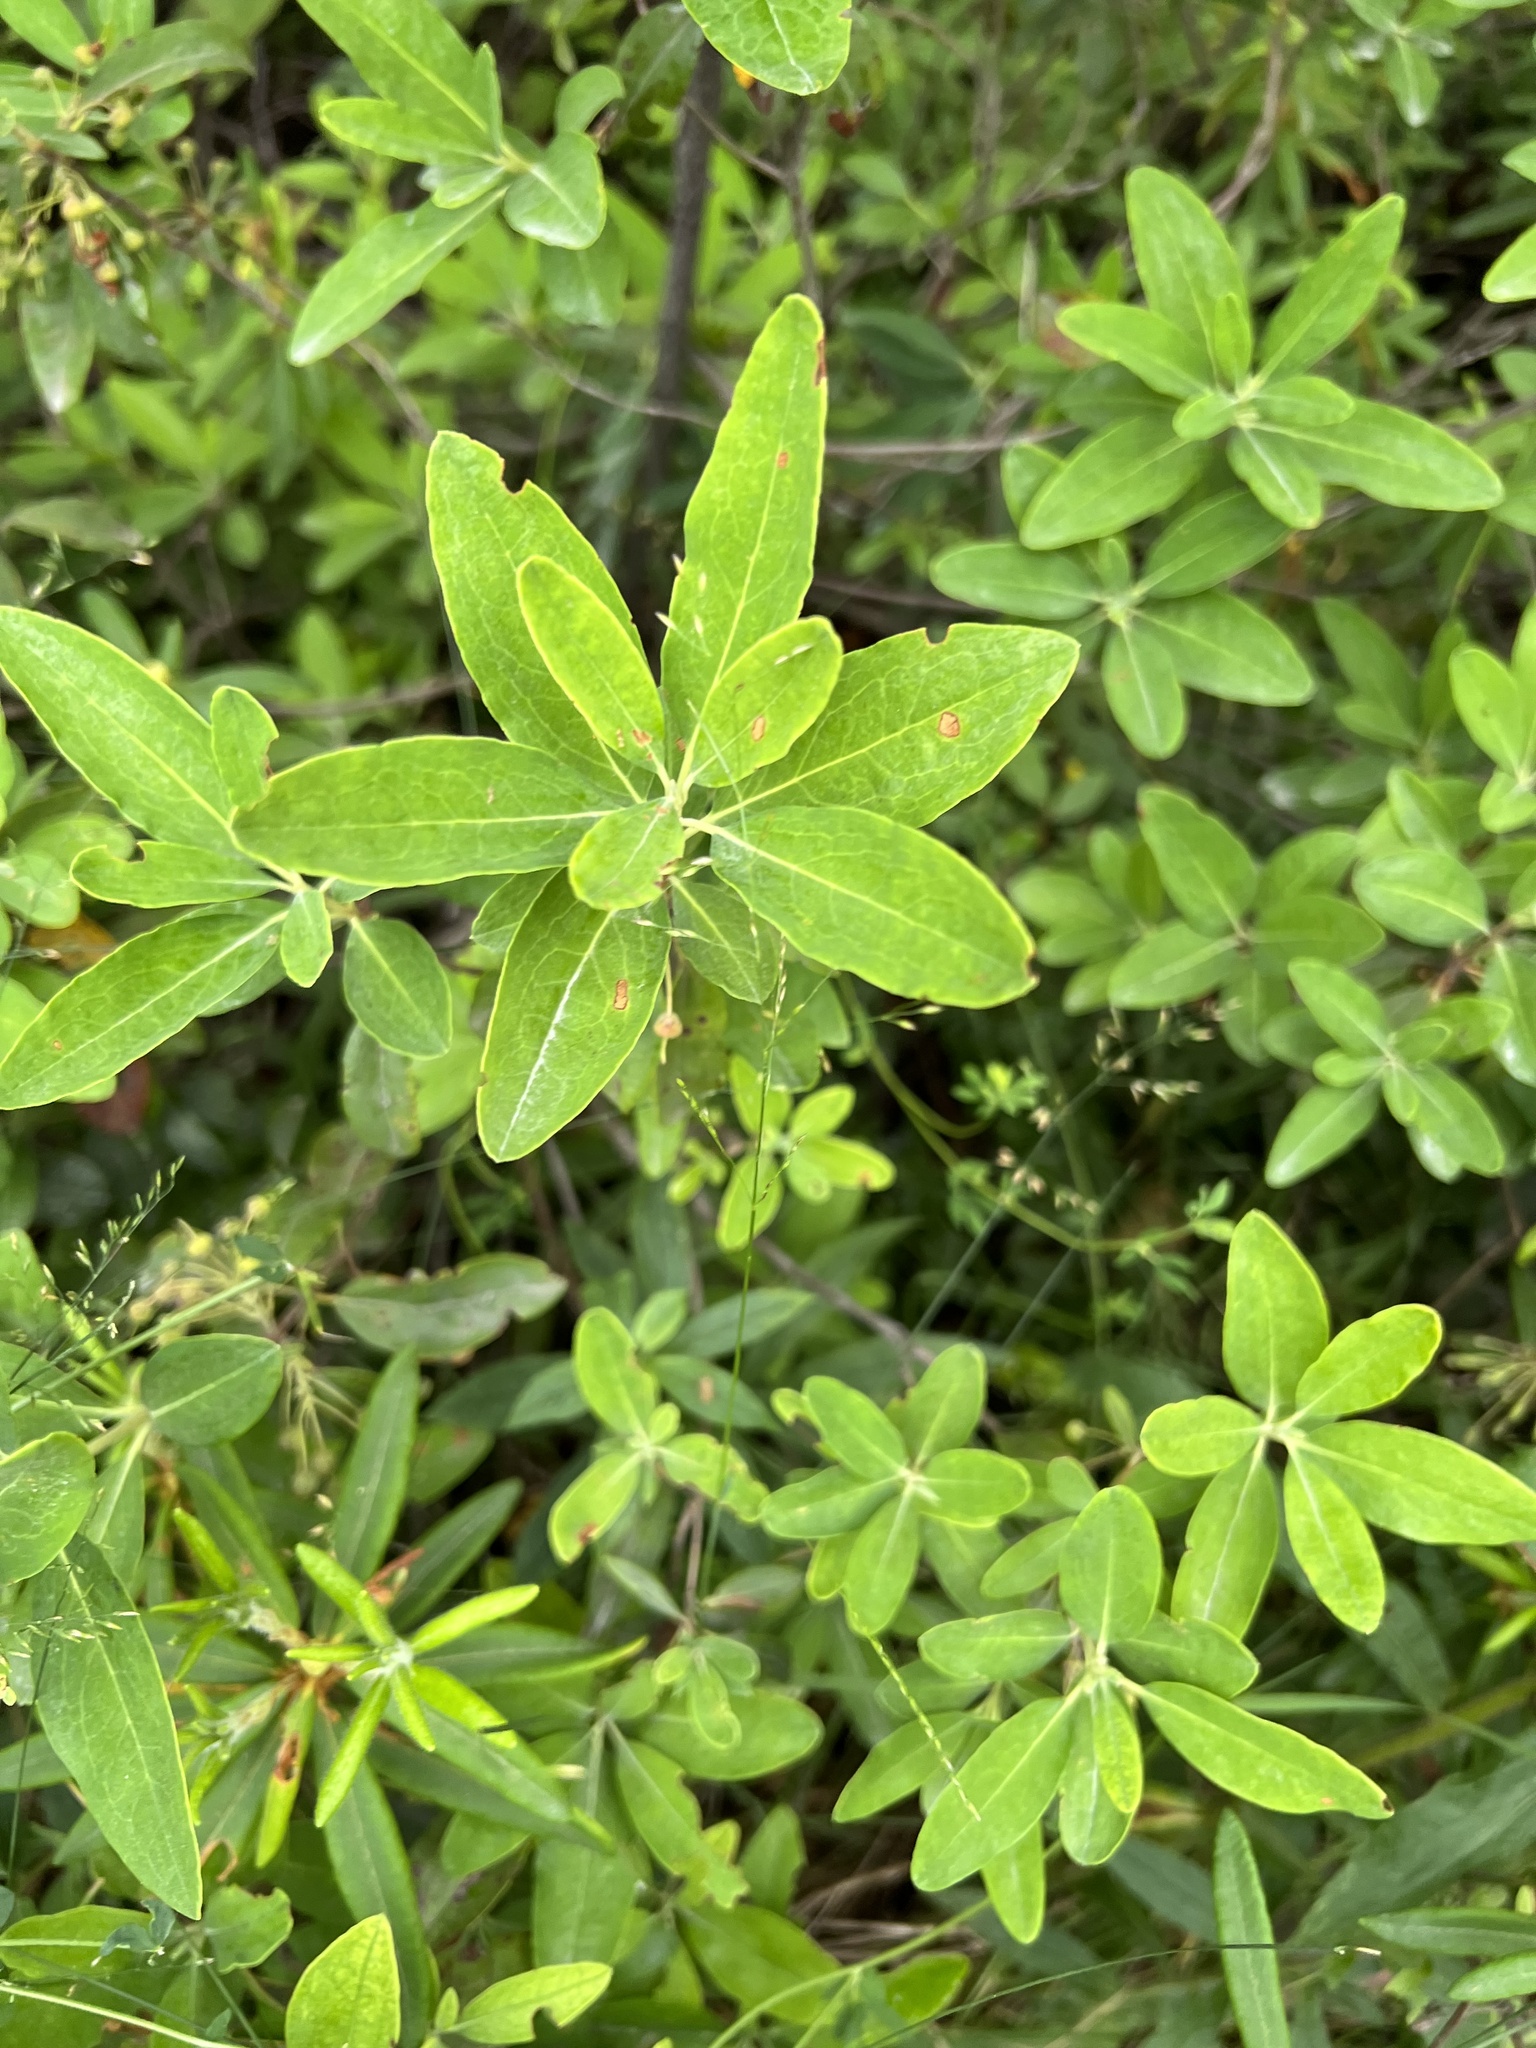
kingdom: Plantae
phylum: Tracheophyta
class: Magnoliopsida
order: Ericales
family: Ericaceae
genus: Kalmia
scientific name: Kalmia angustifolia
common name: Sheep-laurel
